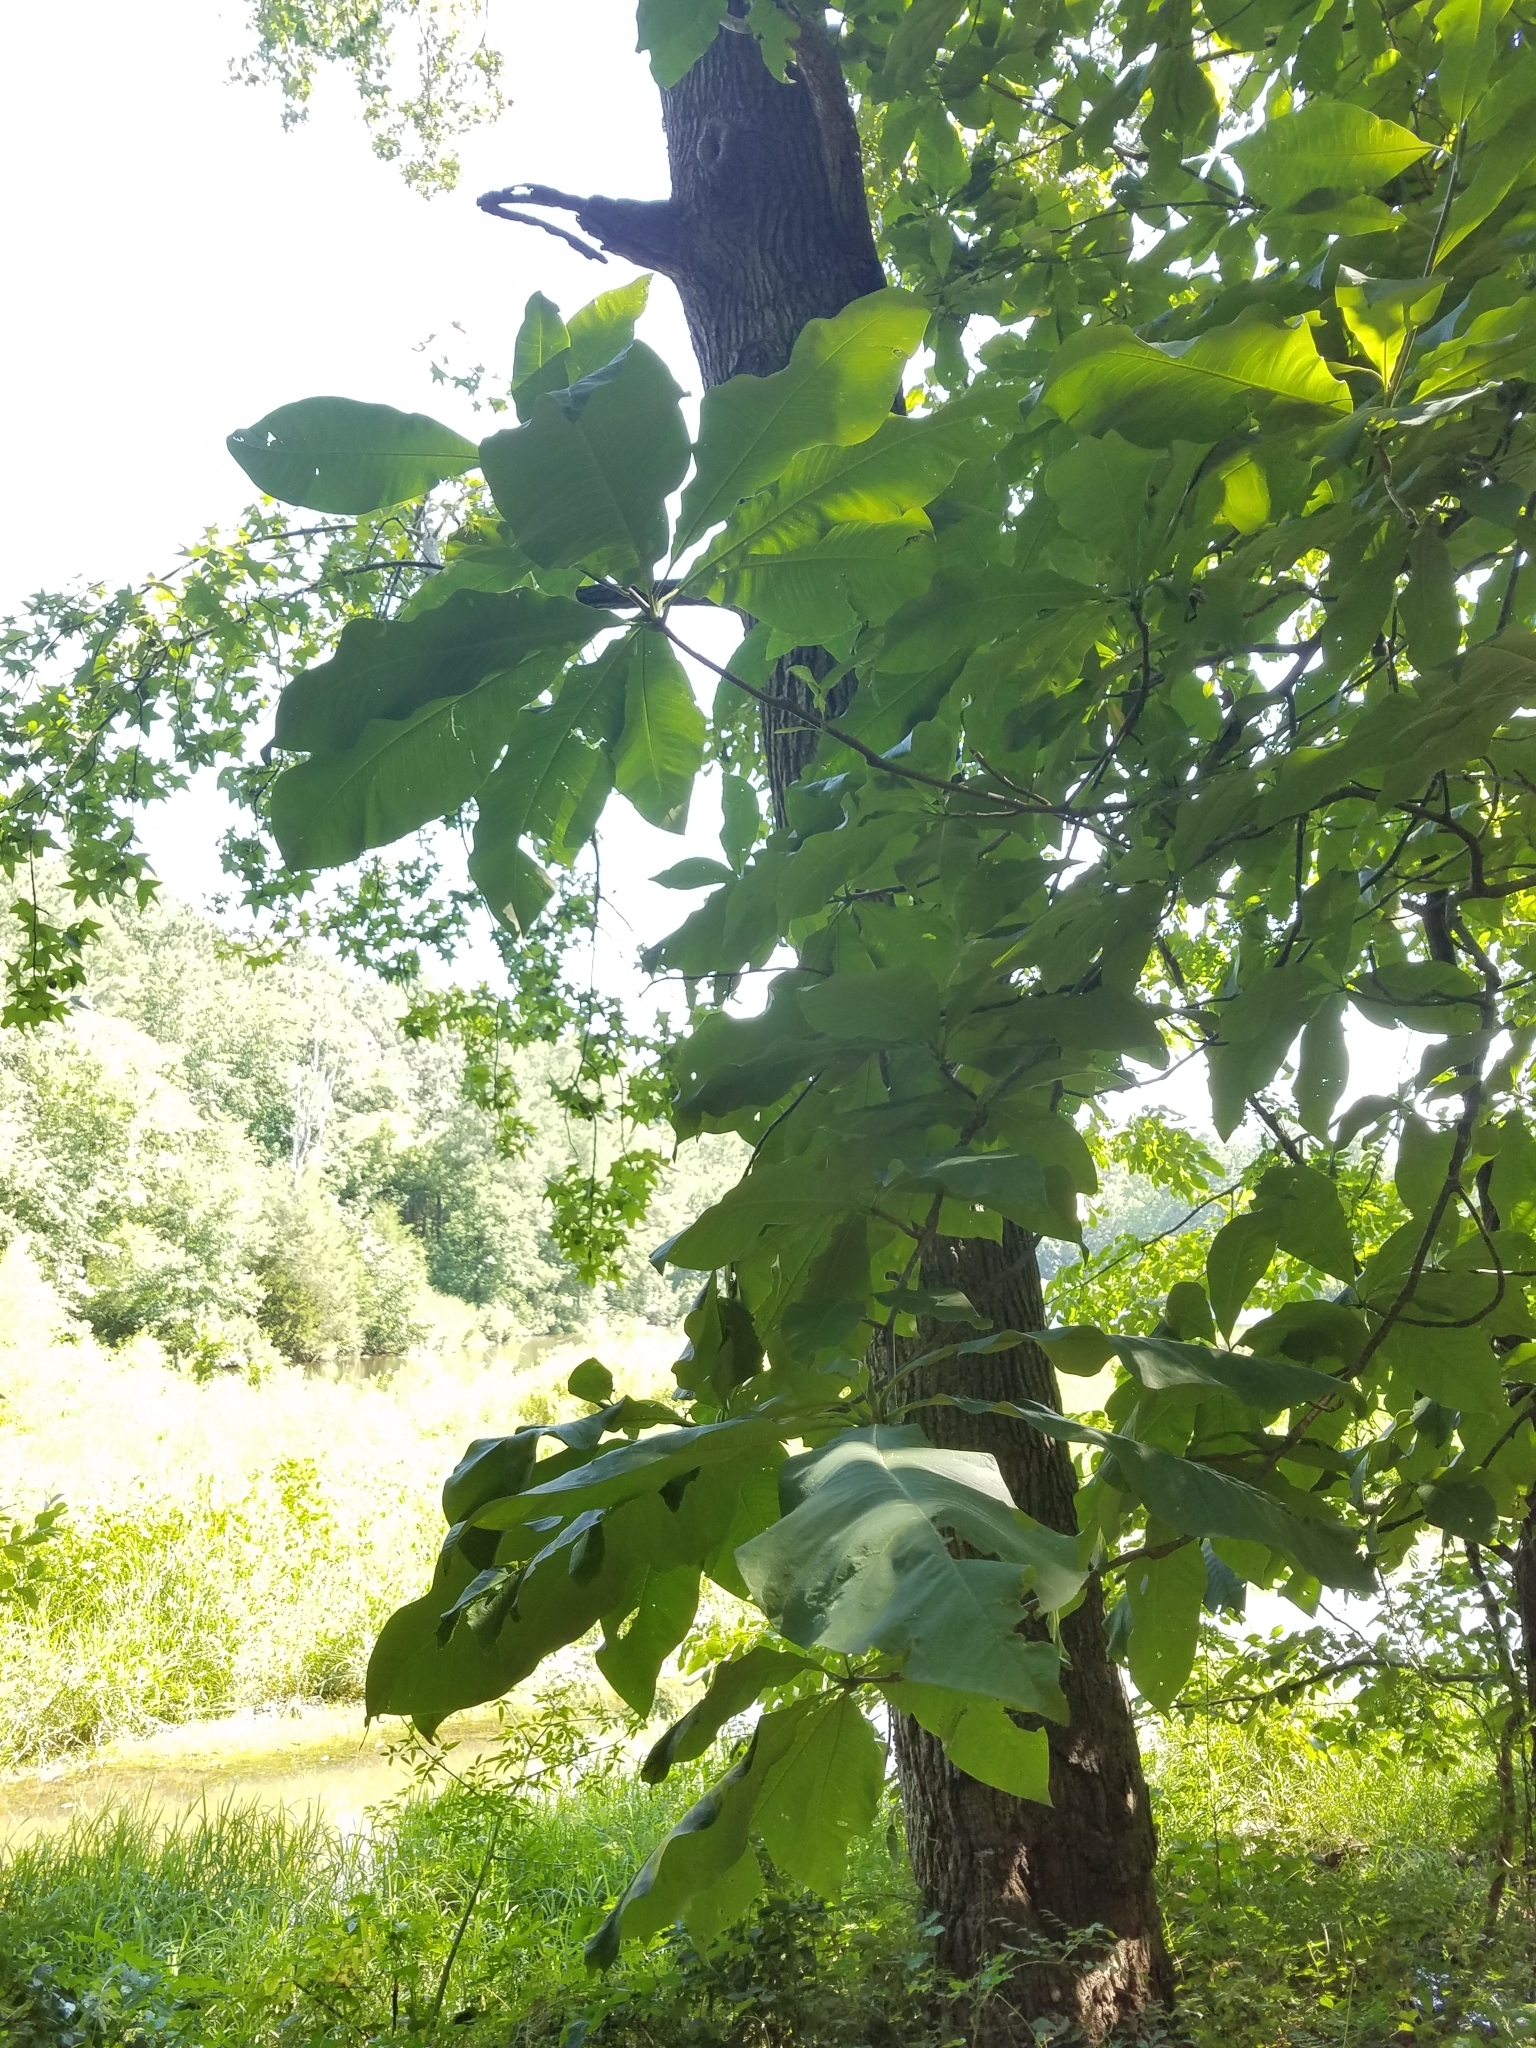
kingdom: Plantae
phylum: Tracheophyta
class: Magnoliopsida
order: Magnoliales
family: Magnoliaceae
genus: Magnolia
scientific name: Magnolia tripetala
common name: Umbrella magnolia
